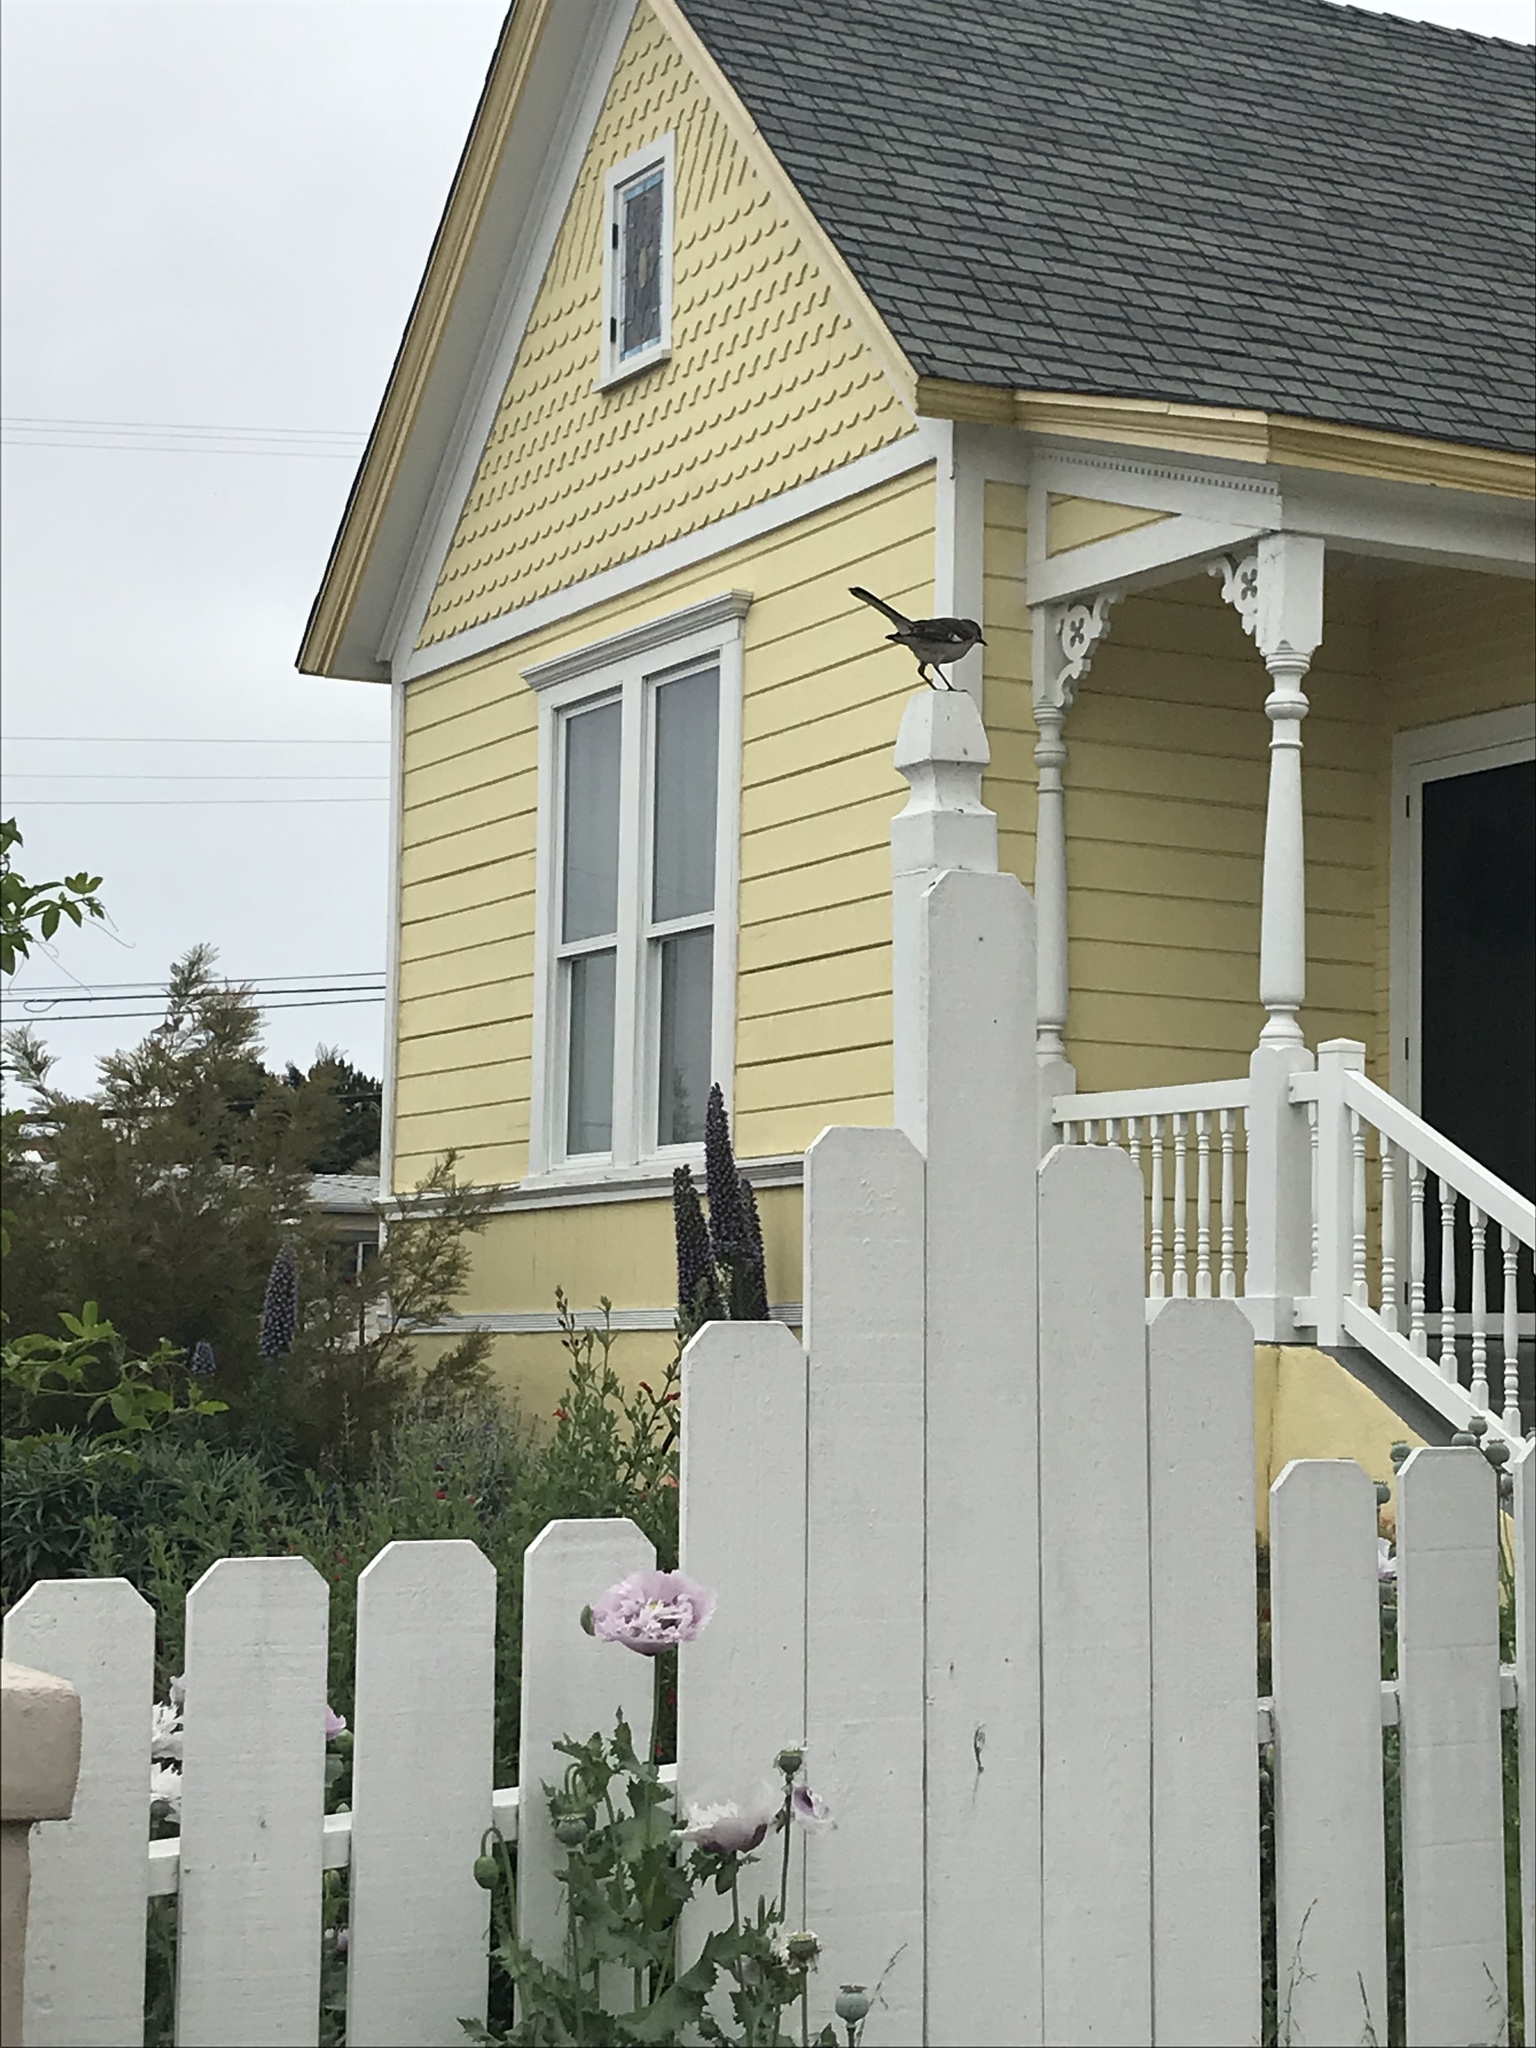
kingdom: Animalia
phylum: Chordata
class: Aves
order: Passeriformes
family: Mimidae
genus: Mimus
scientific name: Mimus polyglottos
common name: Northern mockingbird
